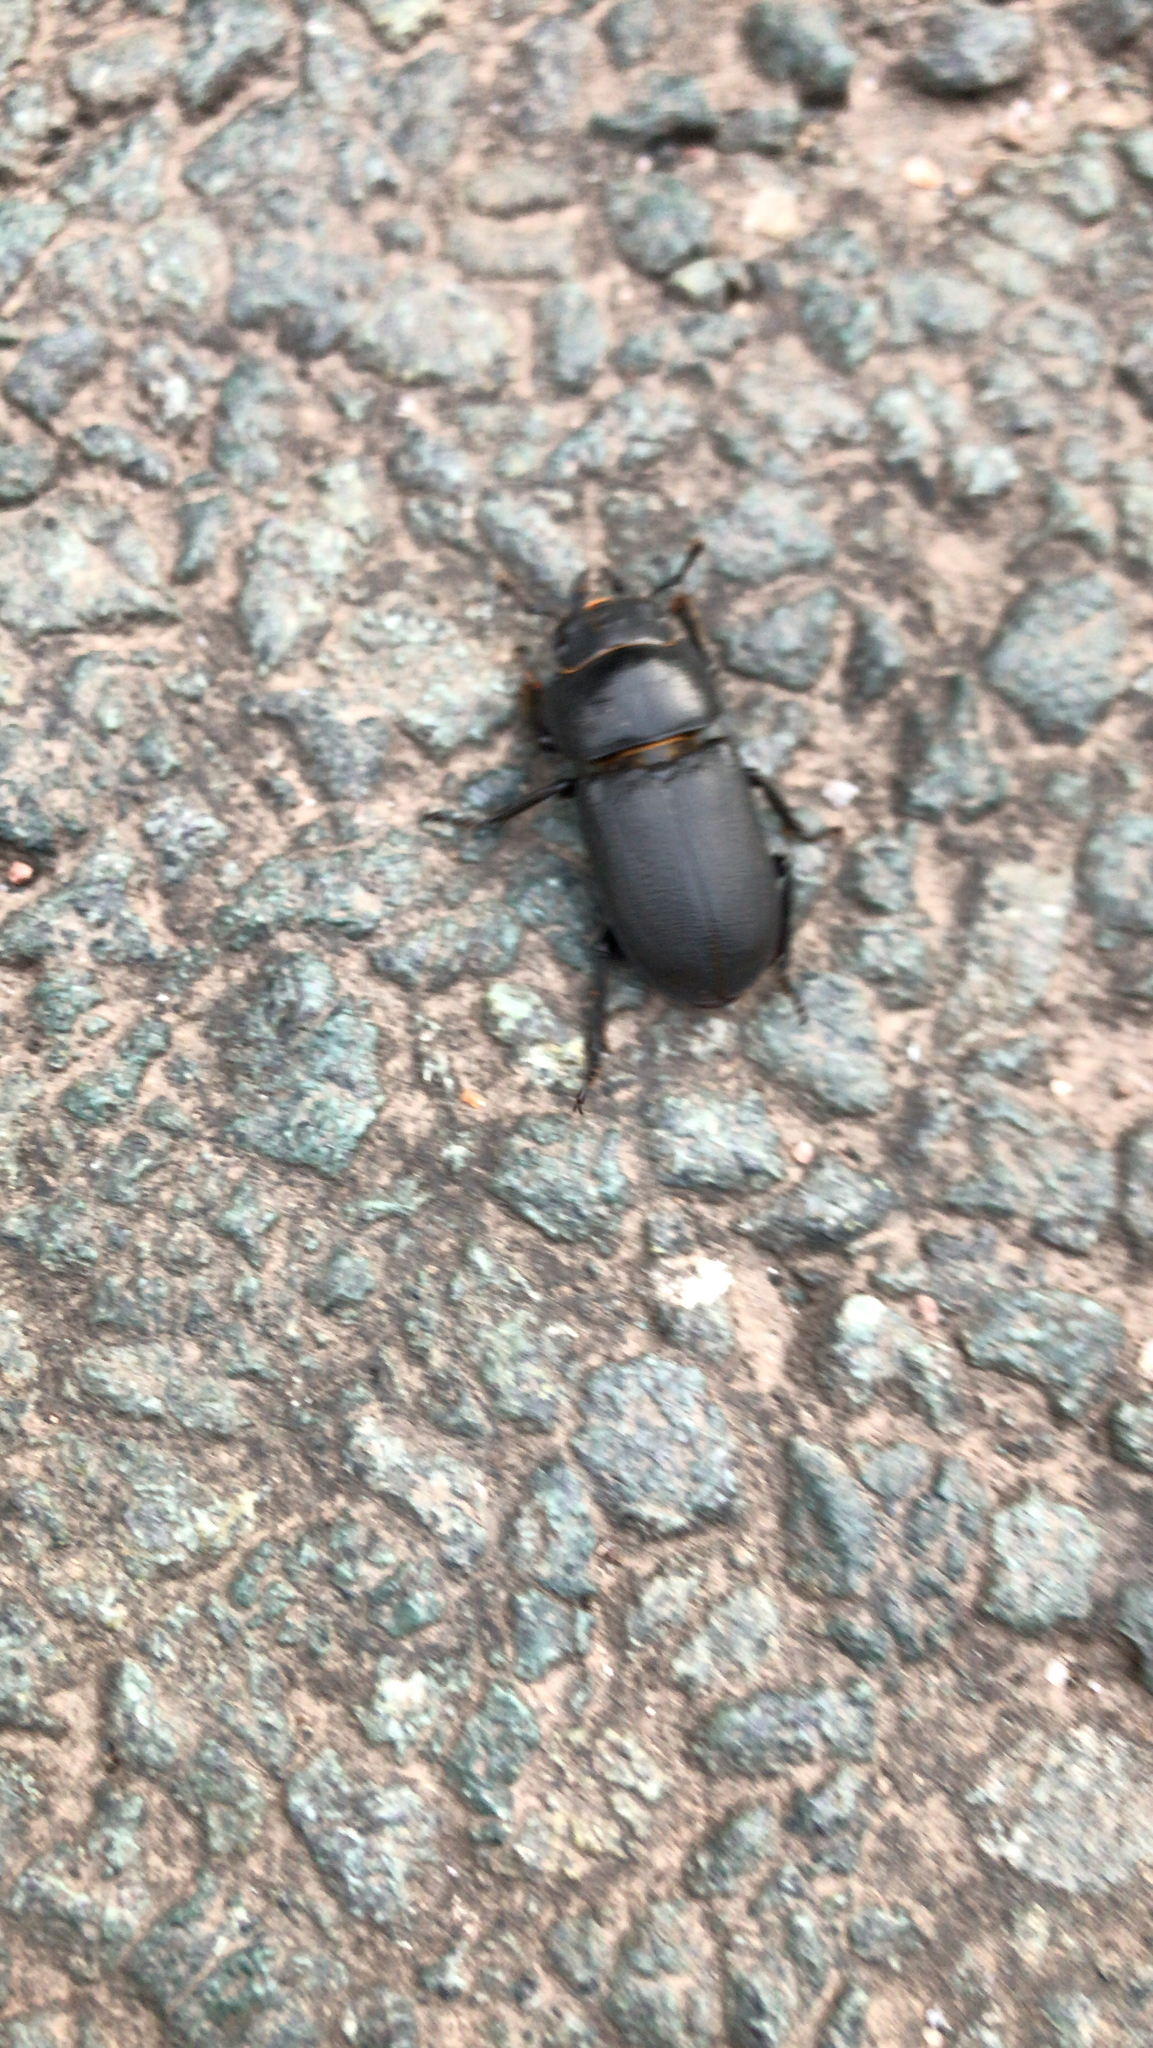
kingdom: Animalia
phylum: Arthropoda
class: Insecta
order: Coleoptera
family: Lucanidae
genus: Dorcus
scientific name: Dorcus parallelipipedus
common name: Lesser stag beetle
